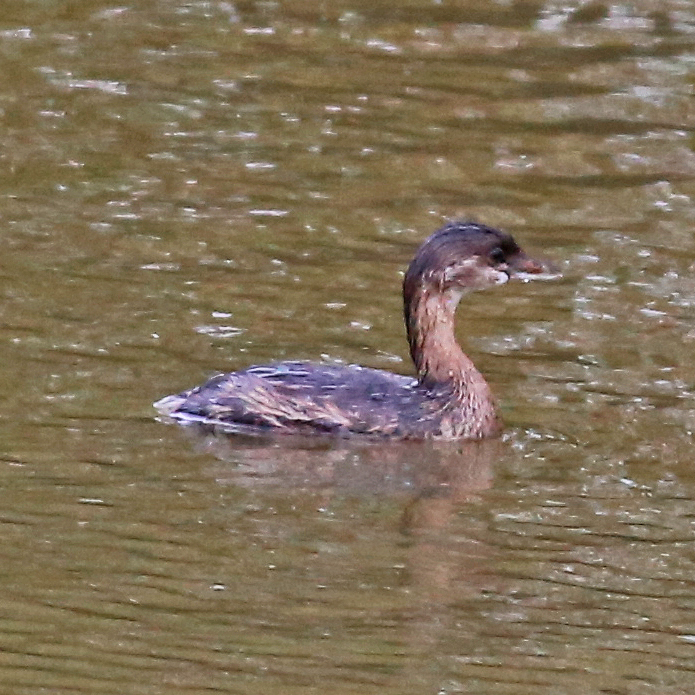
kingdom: Animalia
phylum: Chordata
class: Aves
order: Podicipediformes
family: Podicipedidae
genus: Podilymbus
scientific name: Podilymbus podiceps
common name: Pied-billed grebe
